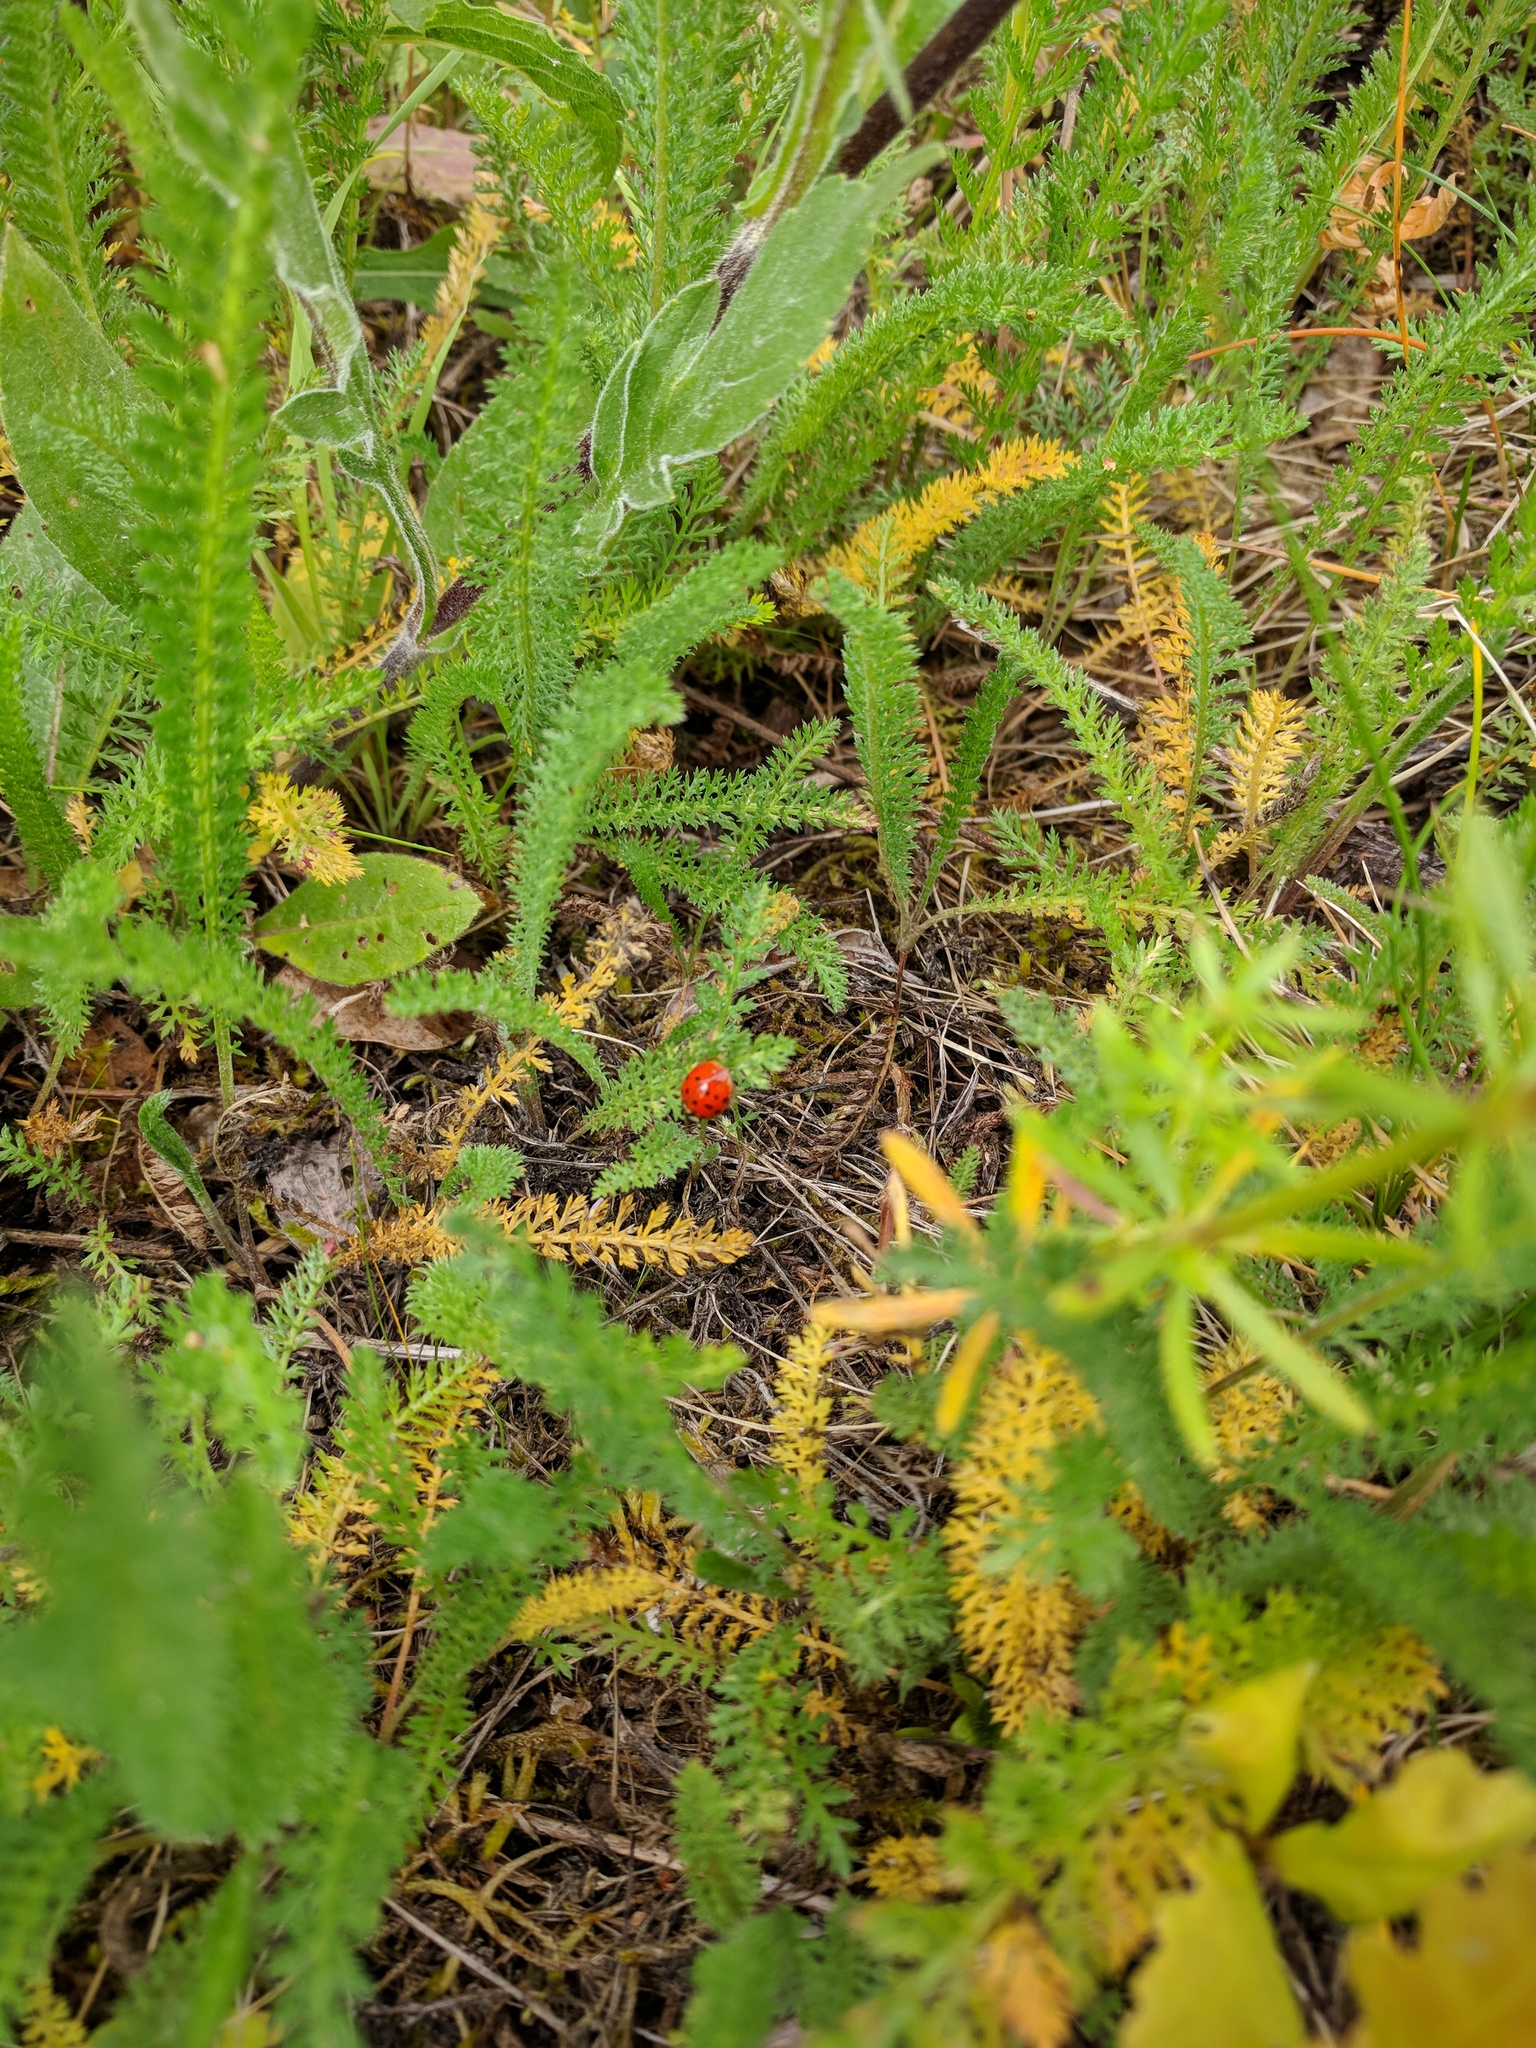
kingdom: Animalia
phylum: Arthropoda
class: Insecta
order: Coleoptera
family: Coccinellidae
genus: Harmonia
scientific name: Harmonia axyridis
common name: Harlequin ladybird
